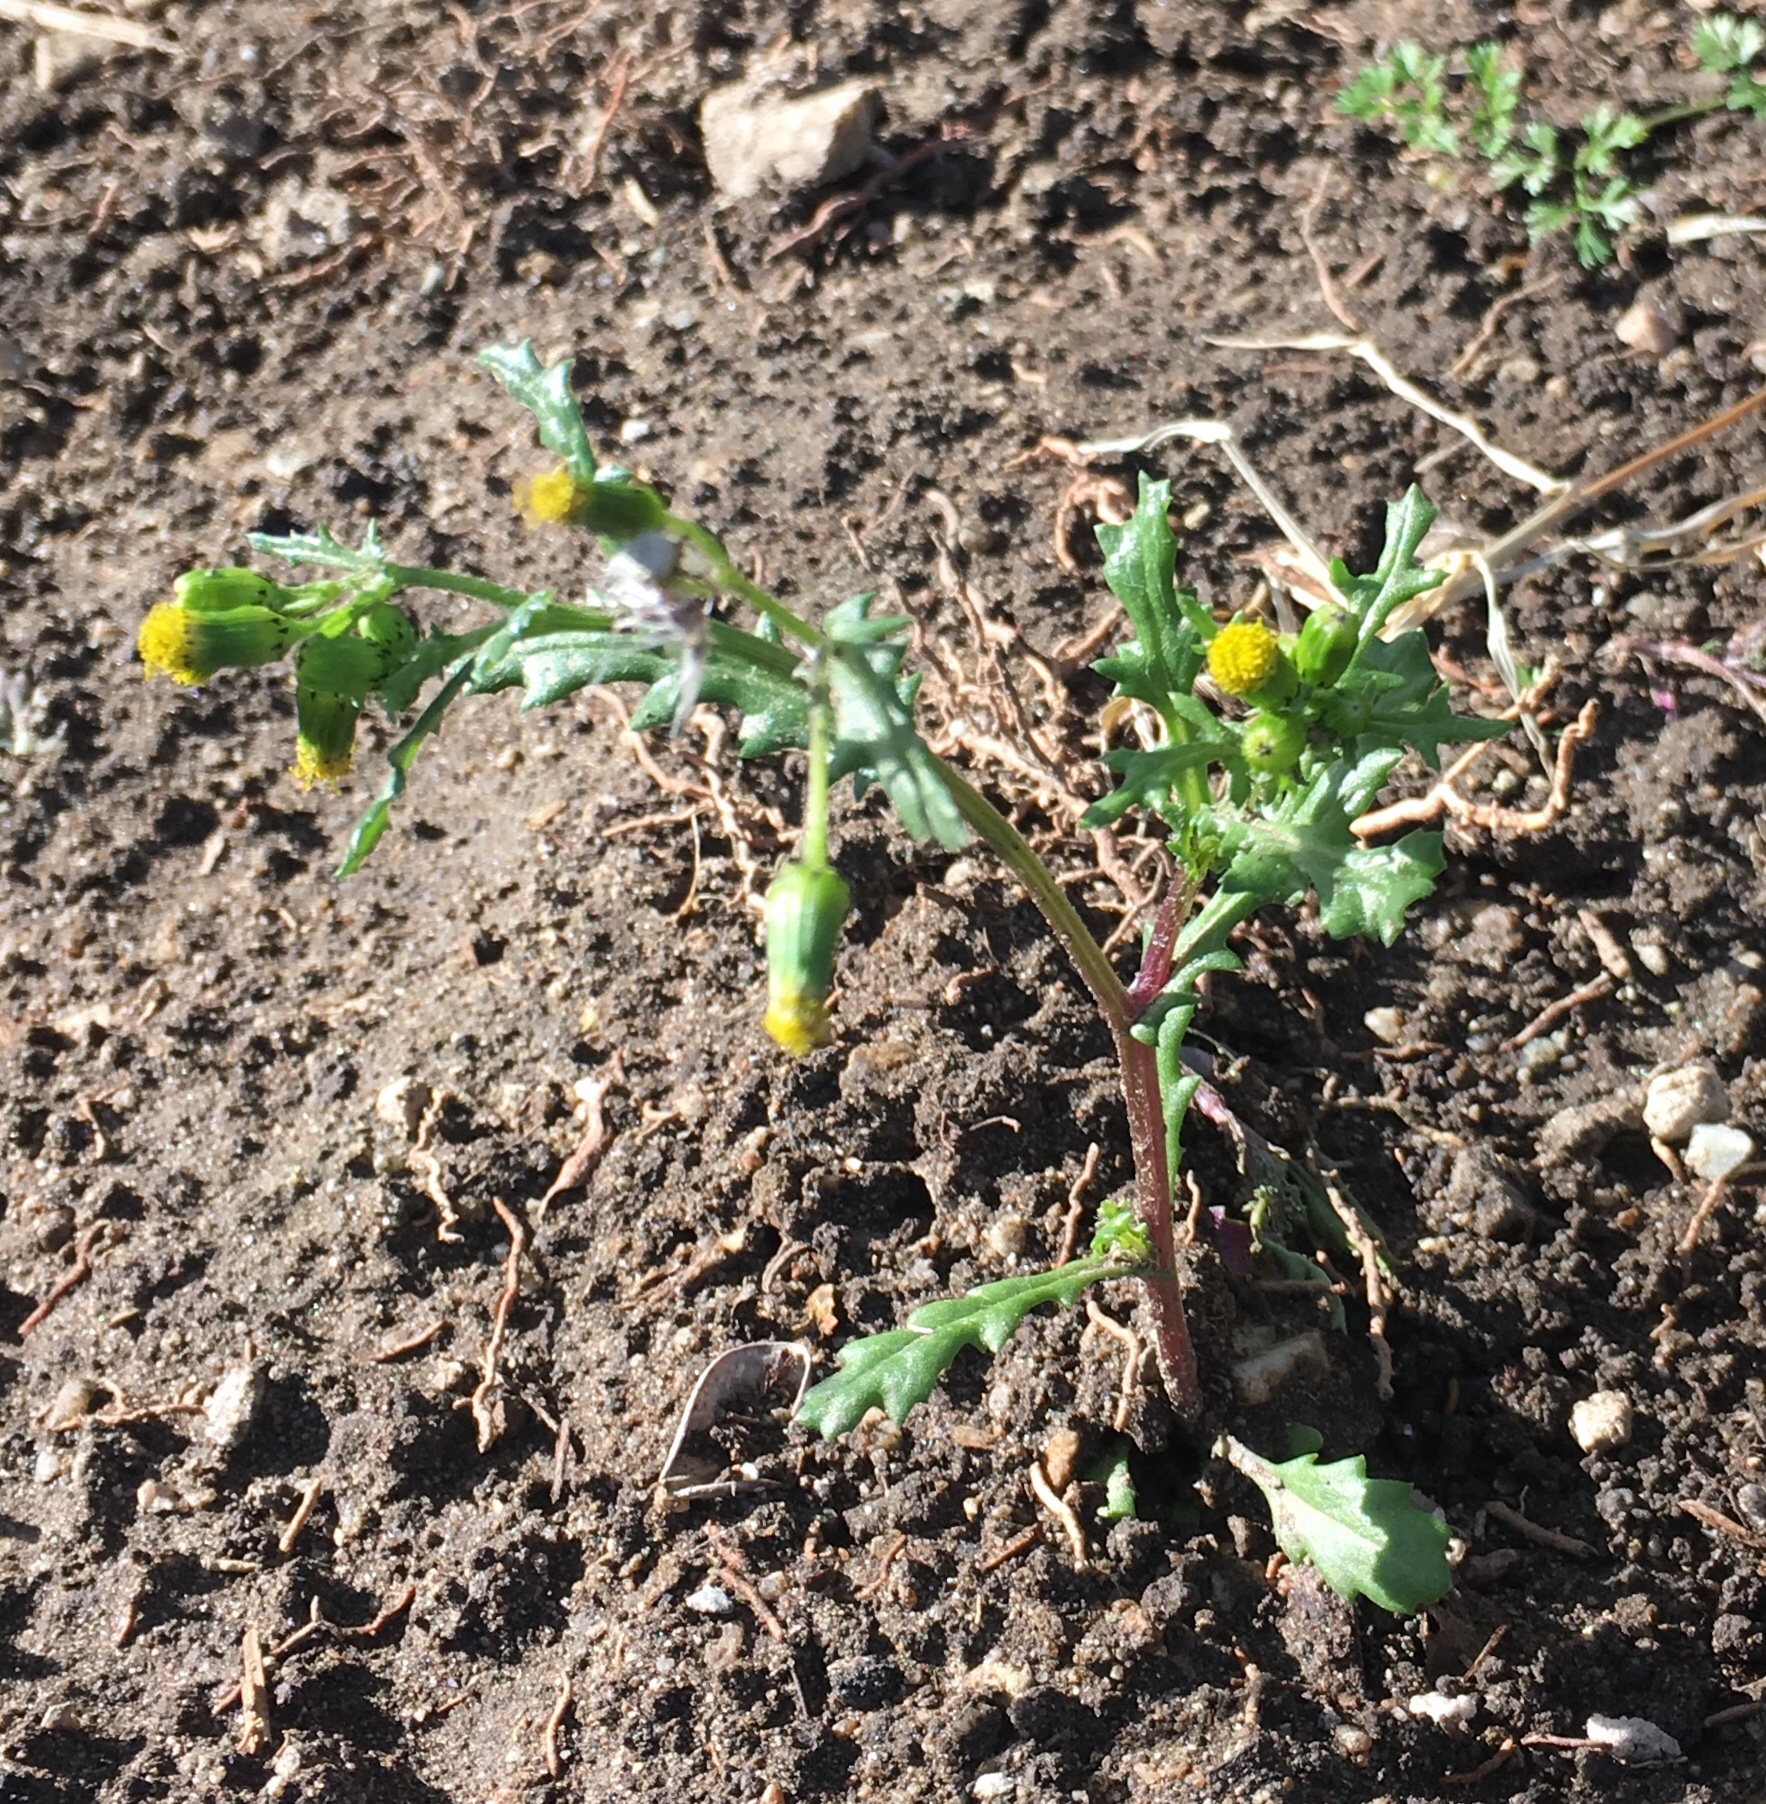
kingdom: Plantae
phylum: Tracheophyta
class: Magnoliopsida
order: Asterales
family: Asteraceae
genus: Senecio
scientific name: Senecio vulgaris
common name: Old-man-in-the-spring
